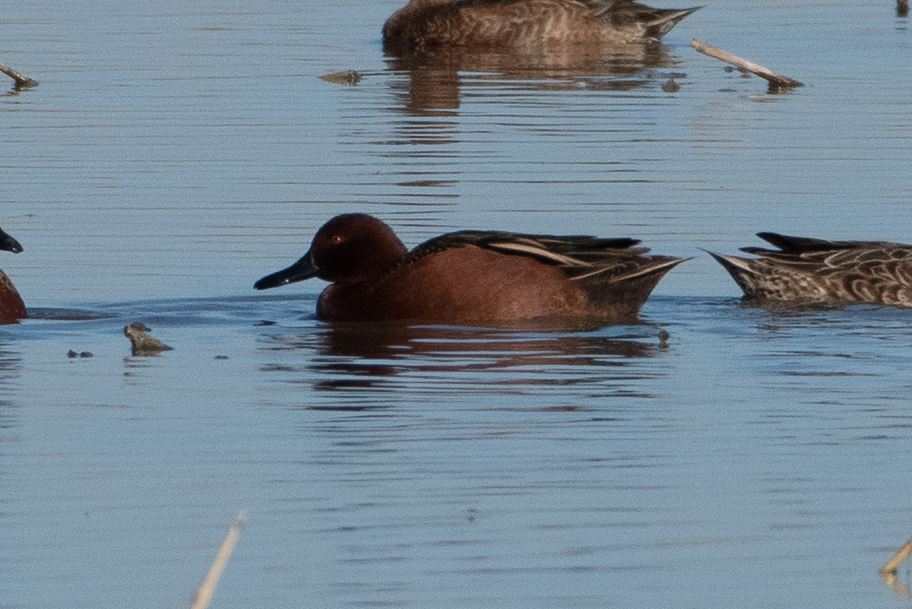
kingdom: Animalia
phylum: Chordata
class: Aves
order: Anseriformes
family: Anatidae
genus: Spatula
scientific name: Spatula cyanoptera
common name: Cinnamon teal
